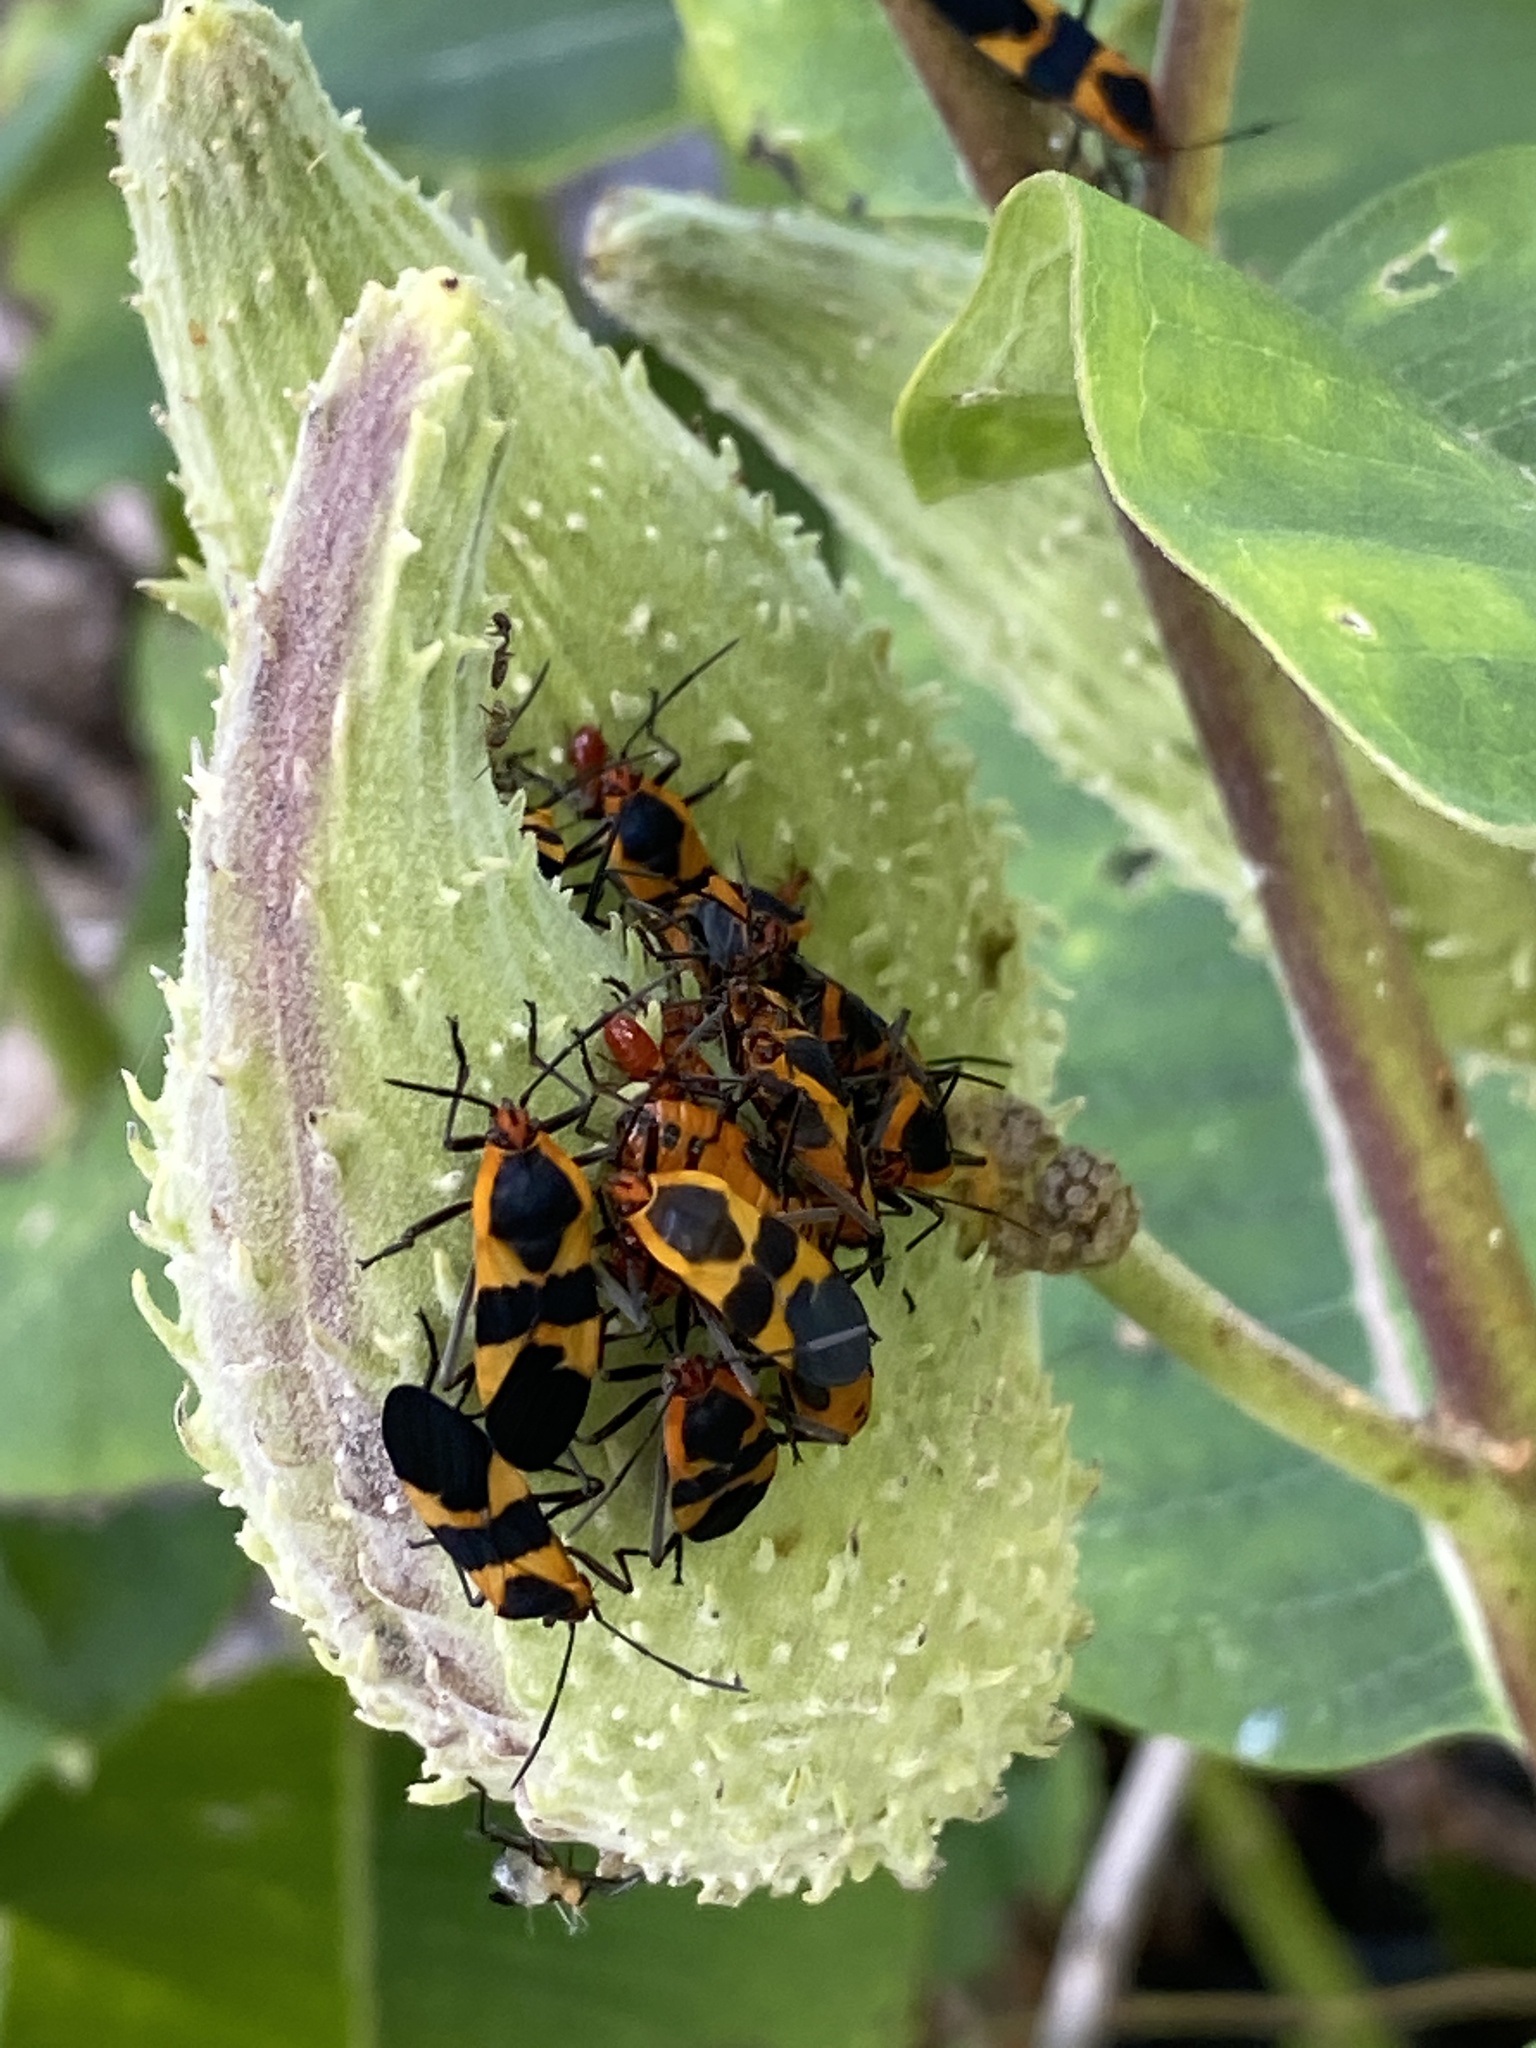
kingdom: Animalia
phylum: Arthropoda
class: Insecta
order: Hemiptera
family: Lygaeidae
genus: Oncopeltus
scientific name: Oncopeltus fasciatus
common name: Large milkweed bug
